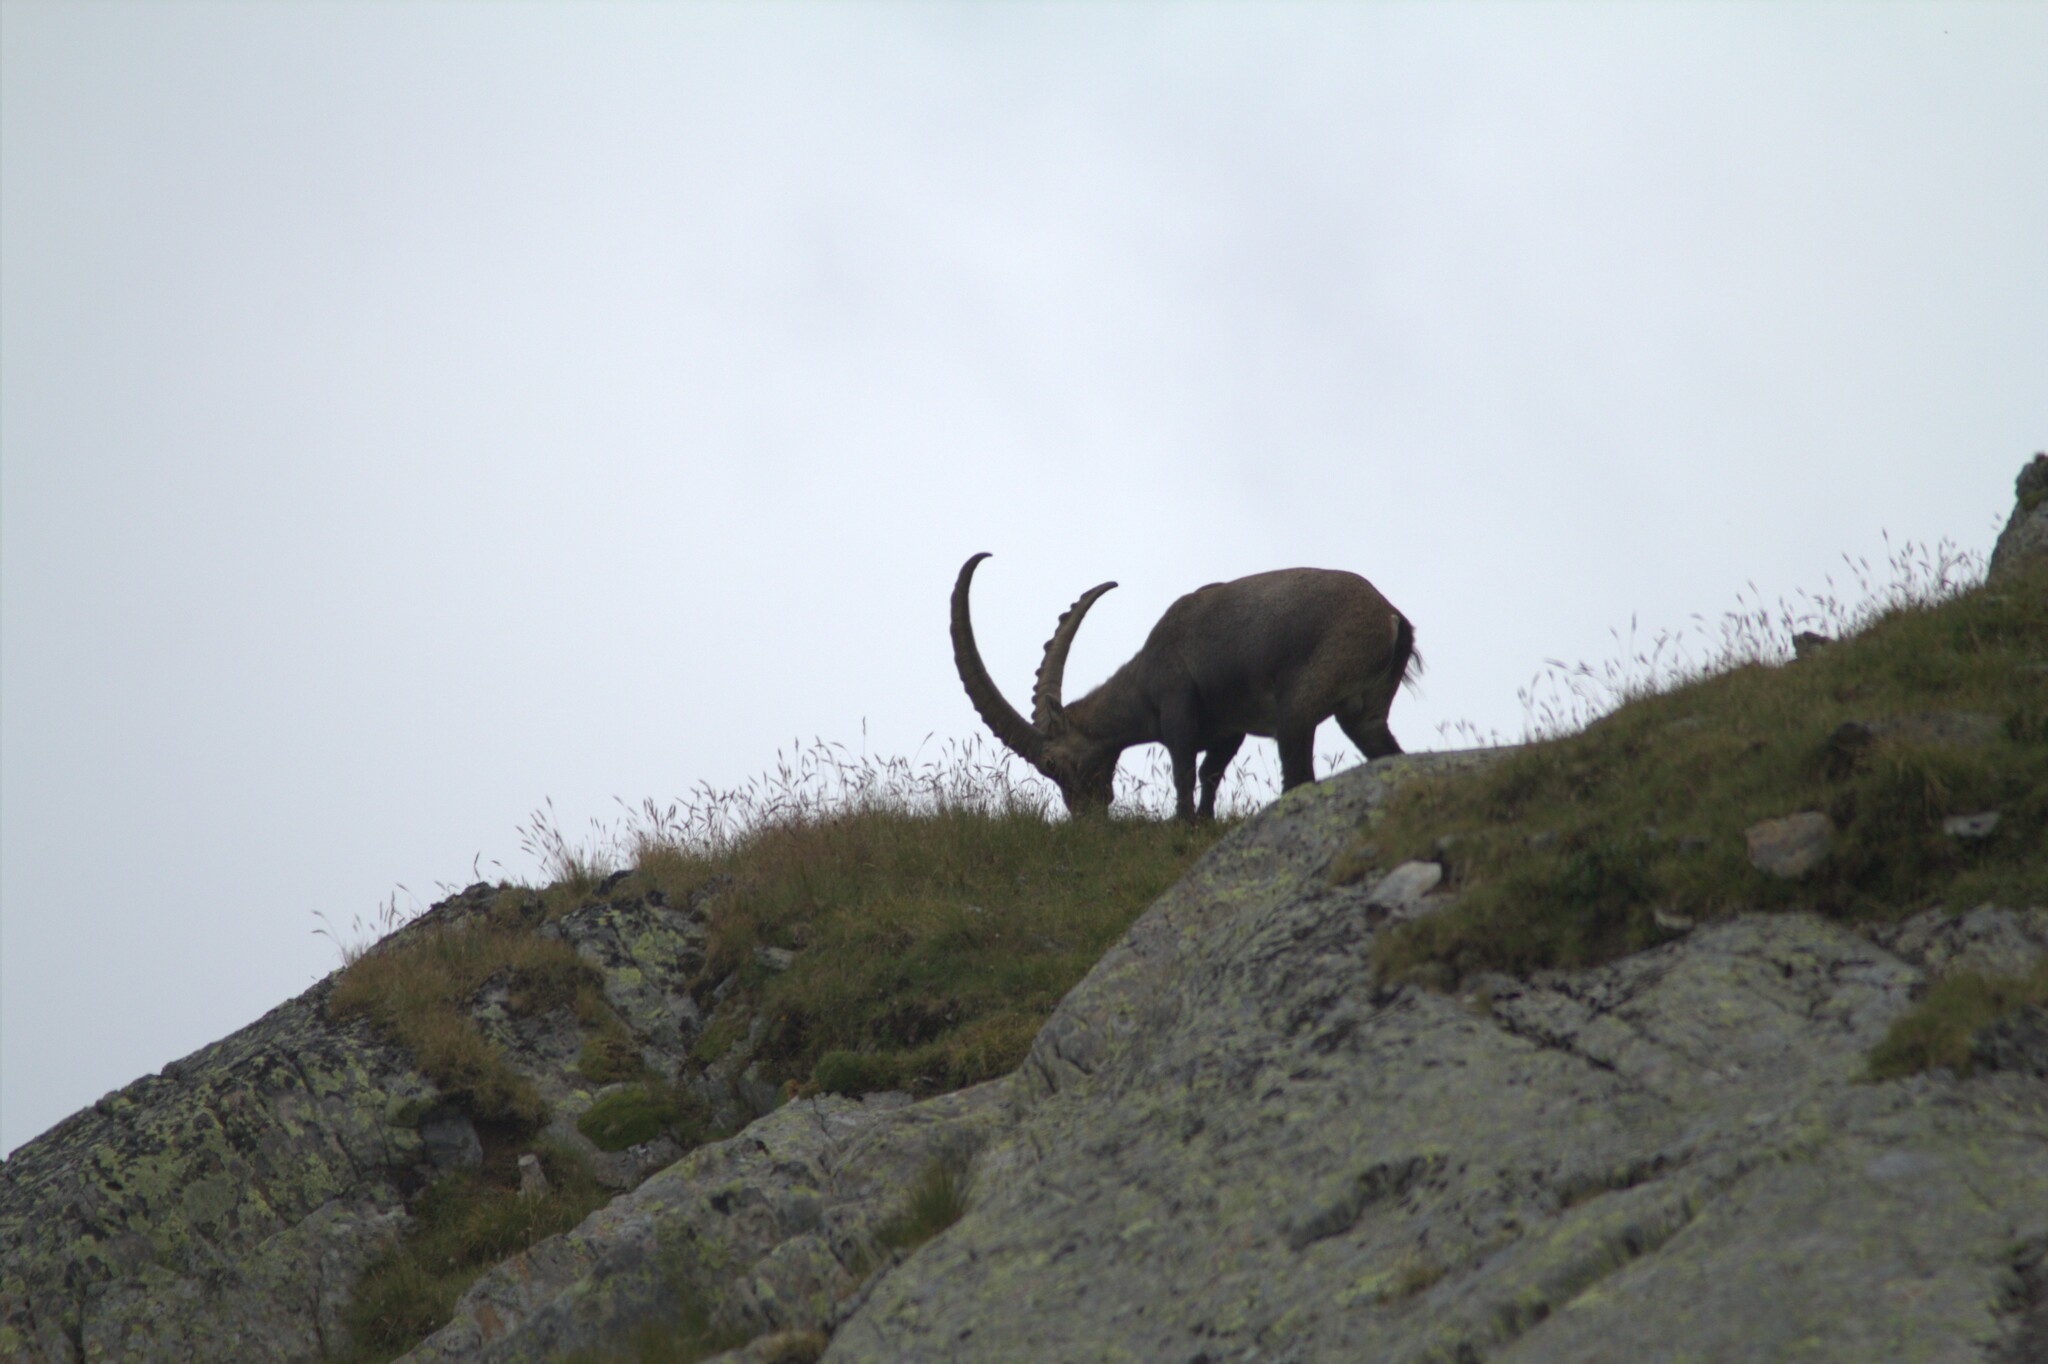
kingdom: Animalia
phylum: Chordata
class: Mammalia
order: Artiodactyla
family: Bovidae
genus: Capra
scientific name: Capra ibex
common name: Alpine ibex
